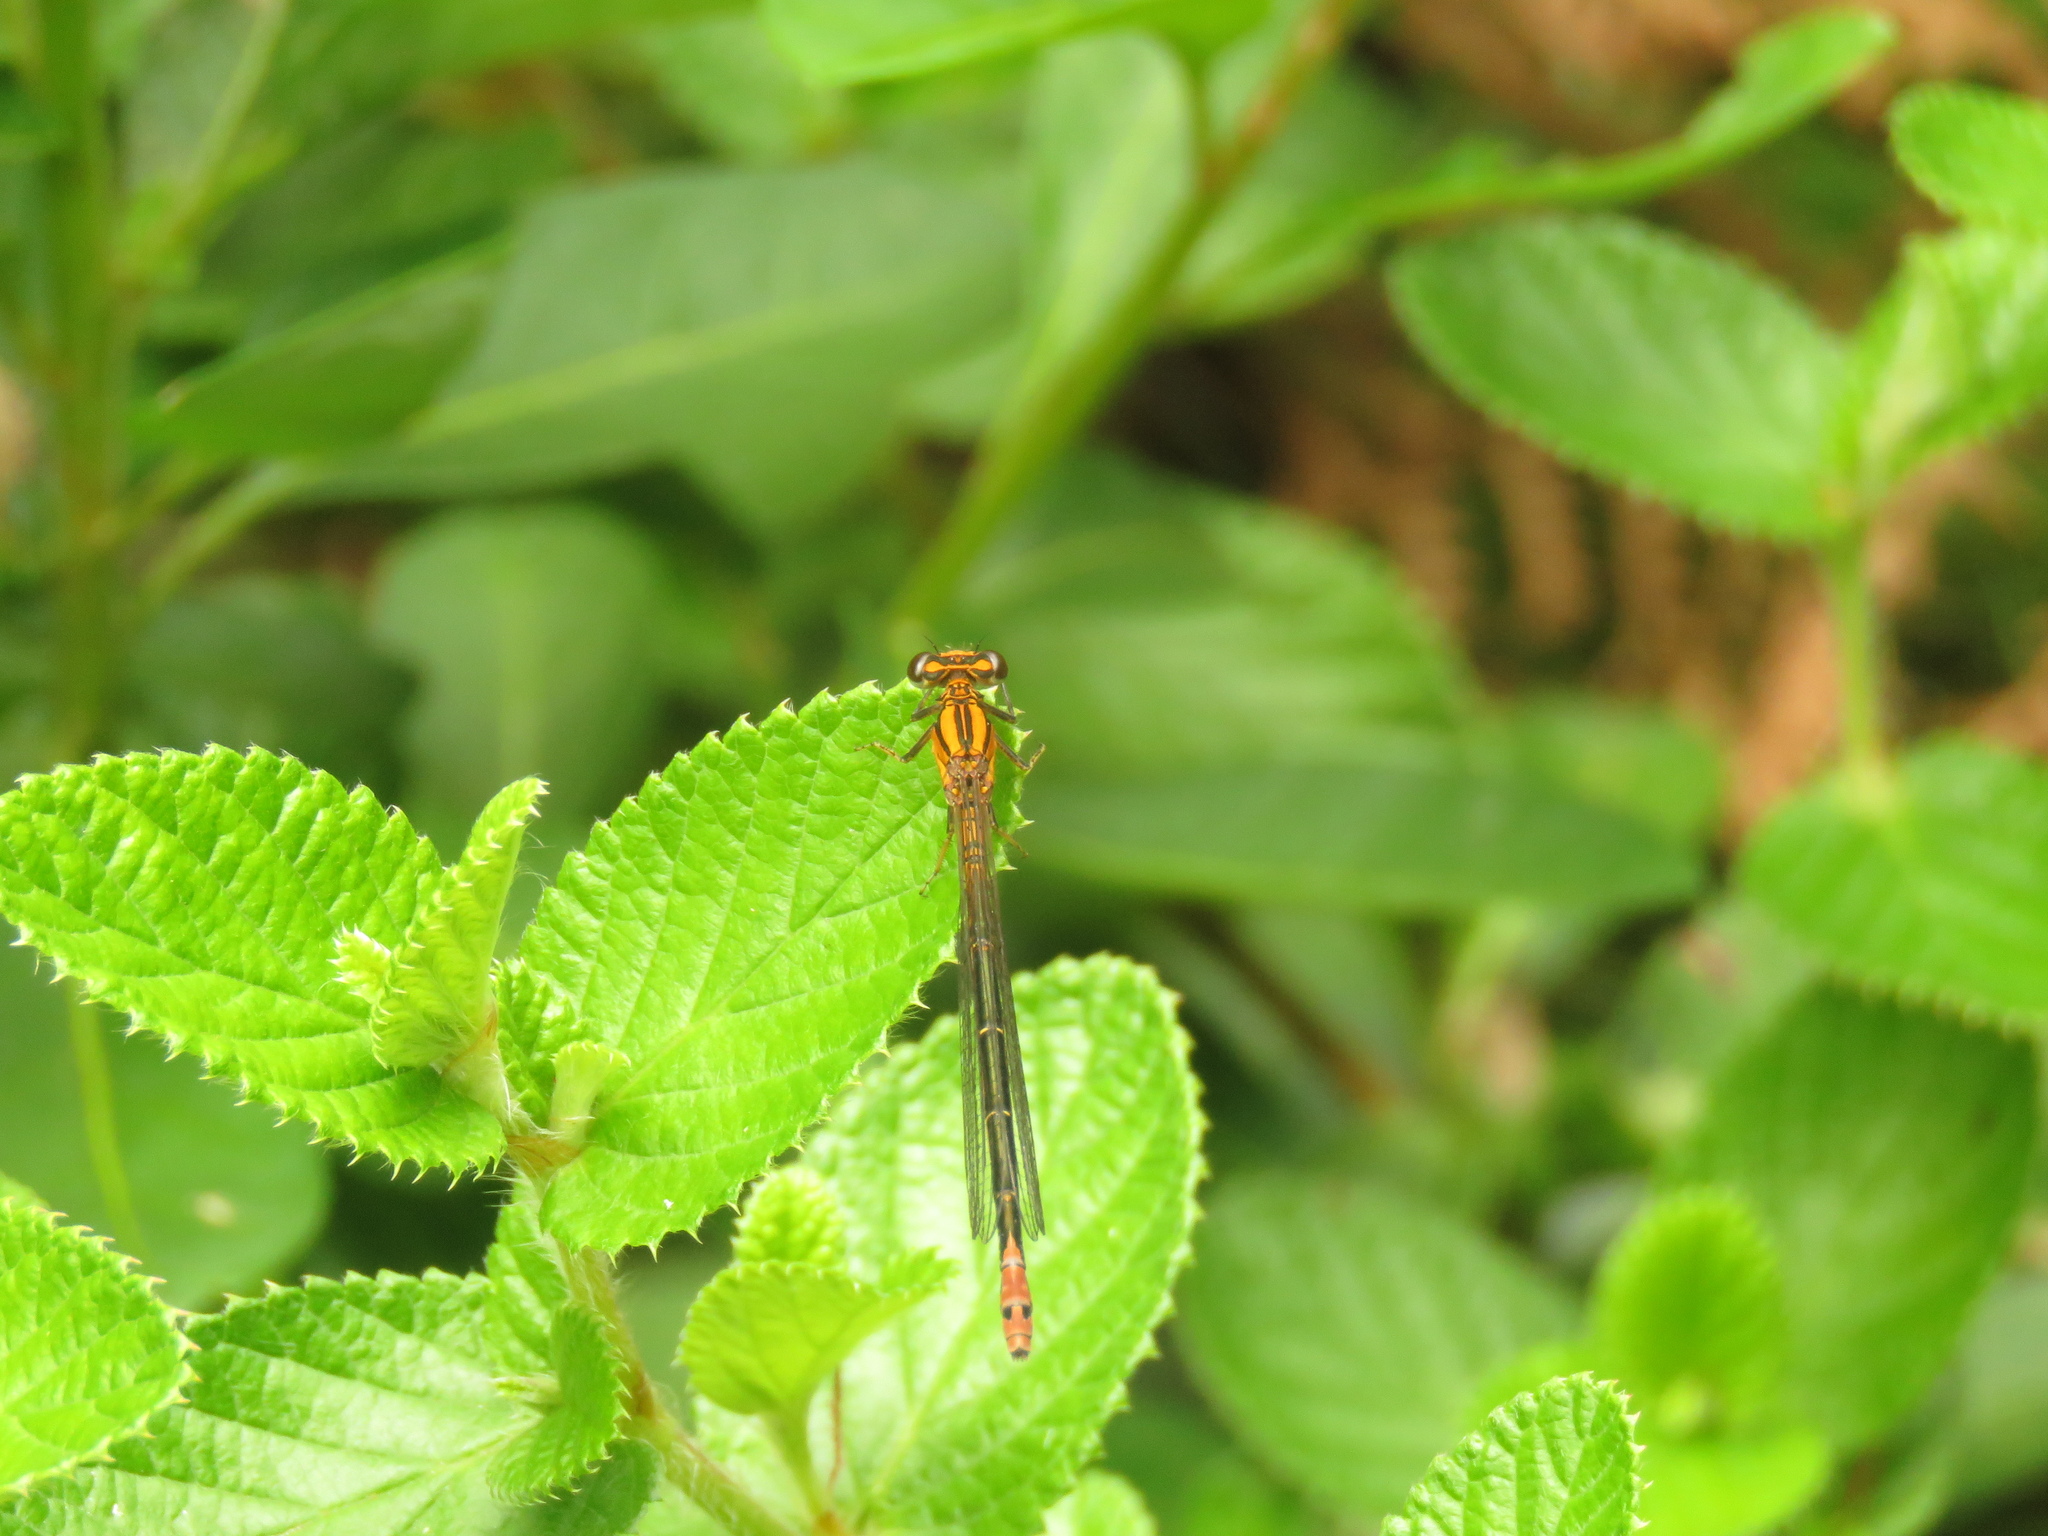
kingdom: Animalia
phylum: Arthropoda
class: Insecta
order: Odonata
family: Coenagrionidae
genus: Pseudagrion
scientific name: Pseudagrion furcigerum
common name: Palmiet sprite
